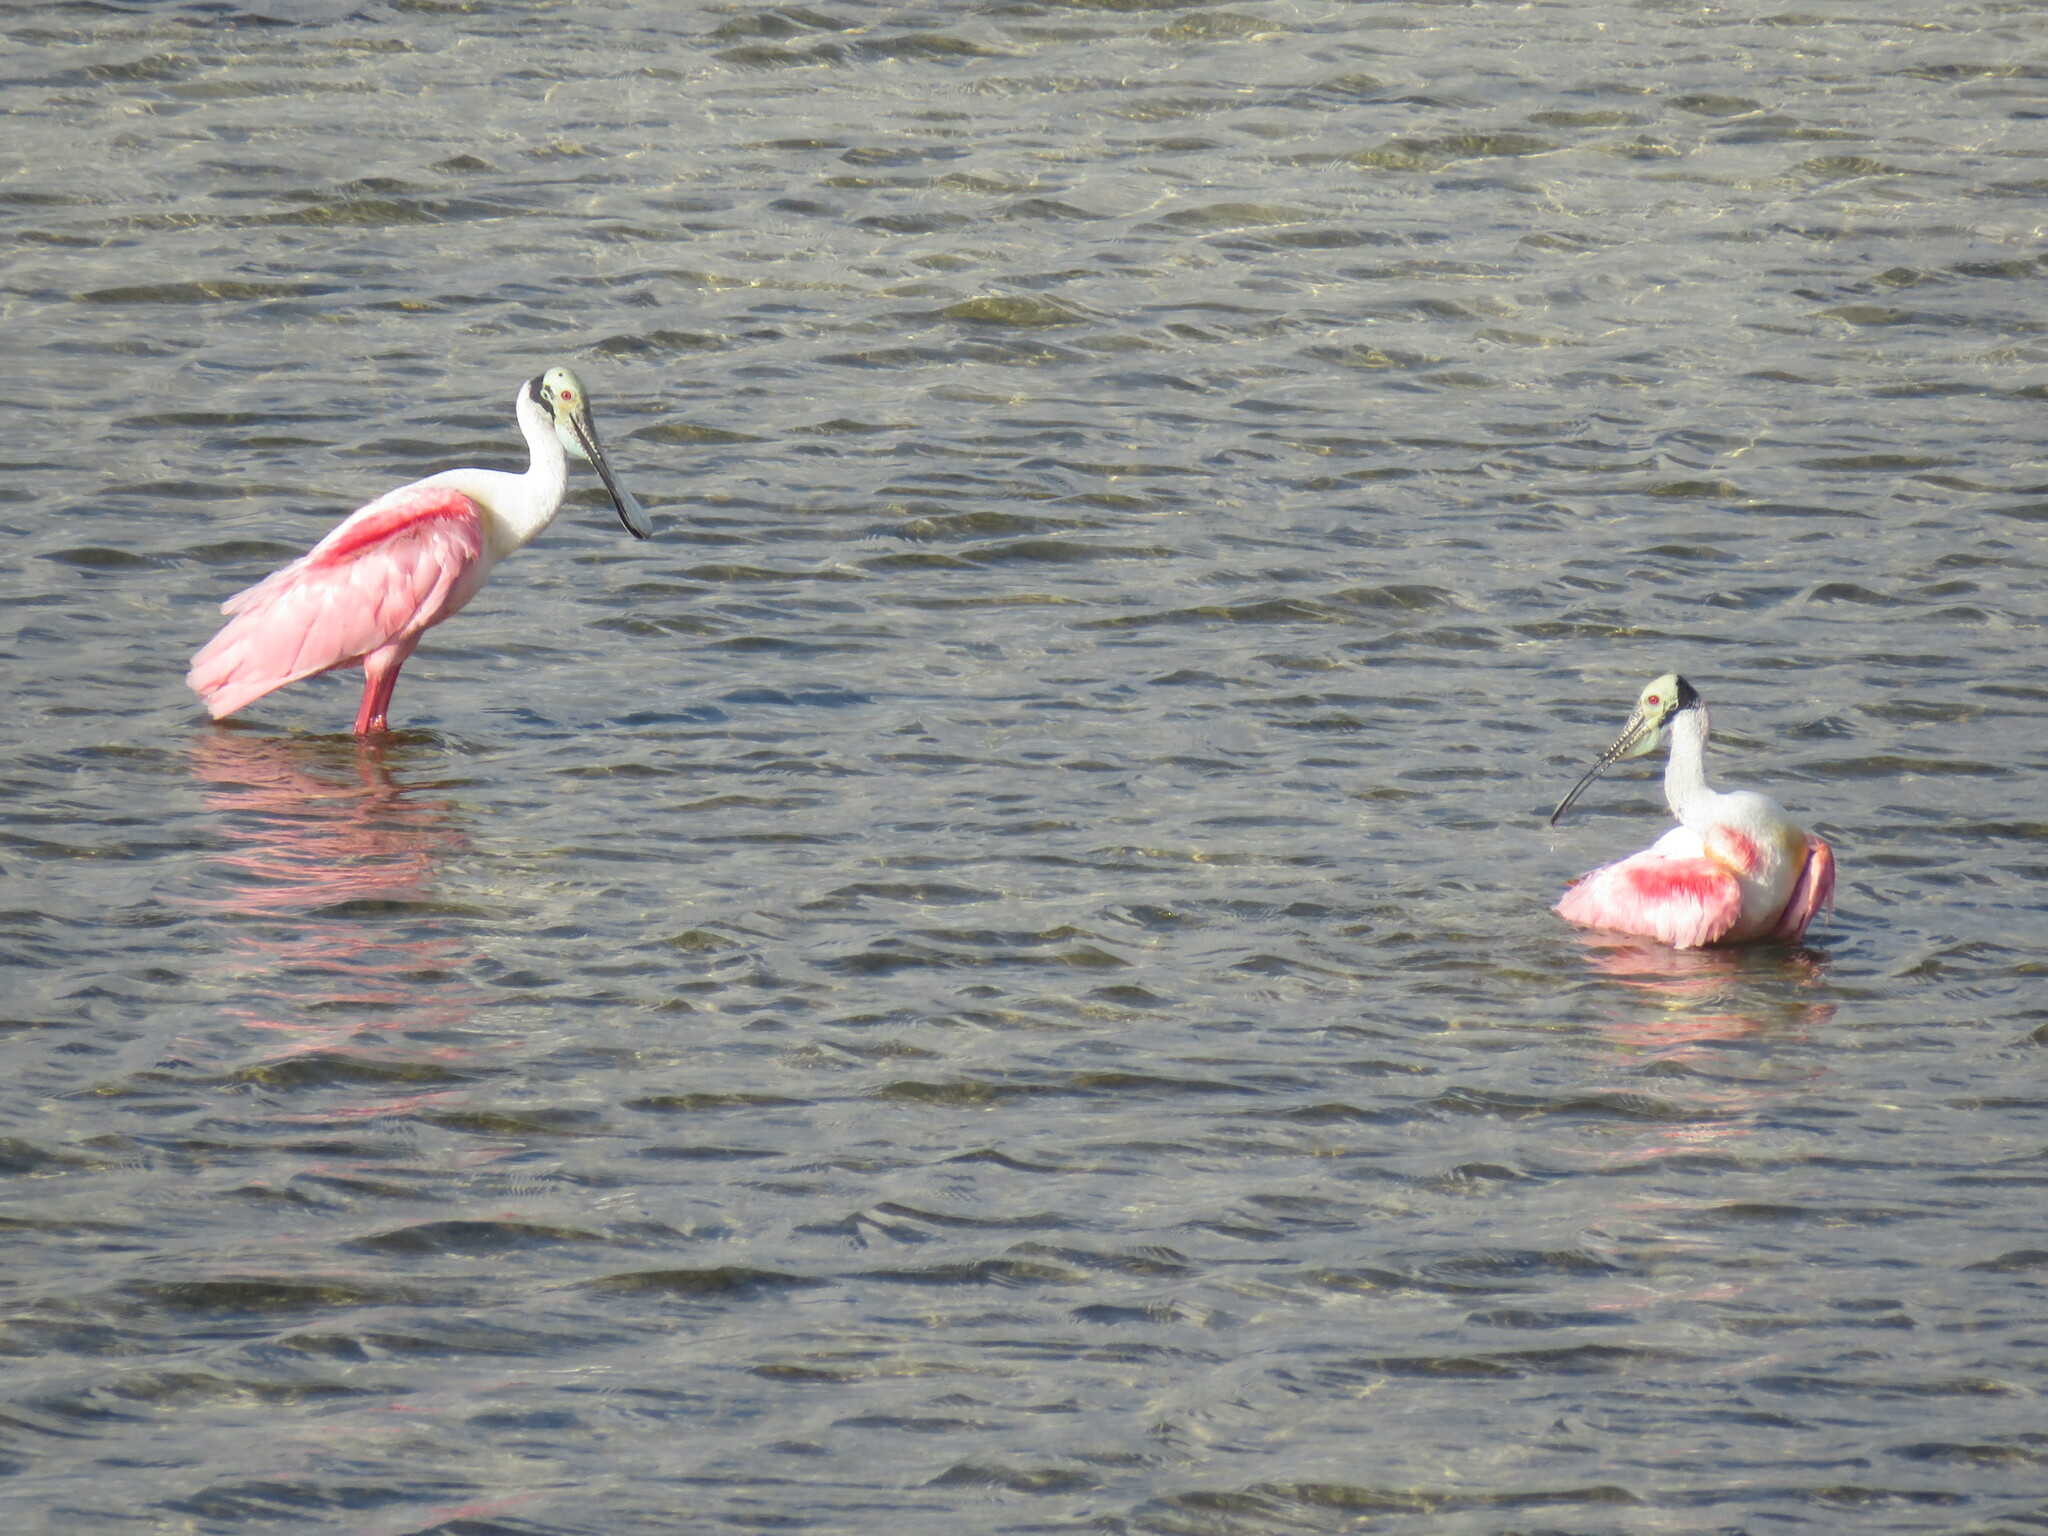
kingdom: Animalia
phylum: Chordata
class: Aves
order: Pelecaniformes
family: Threskiornithidae
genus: Platalea
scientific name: Platalea ajaja
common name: Roseate spoonbill
